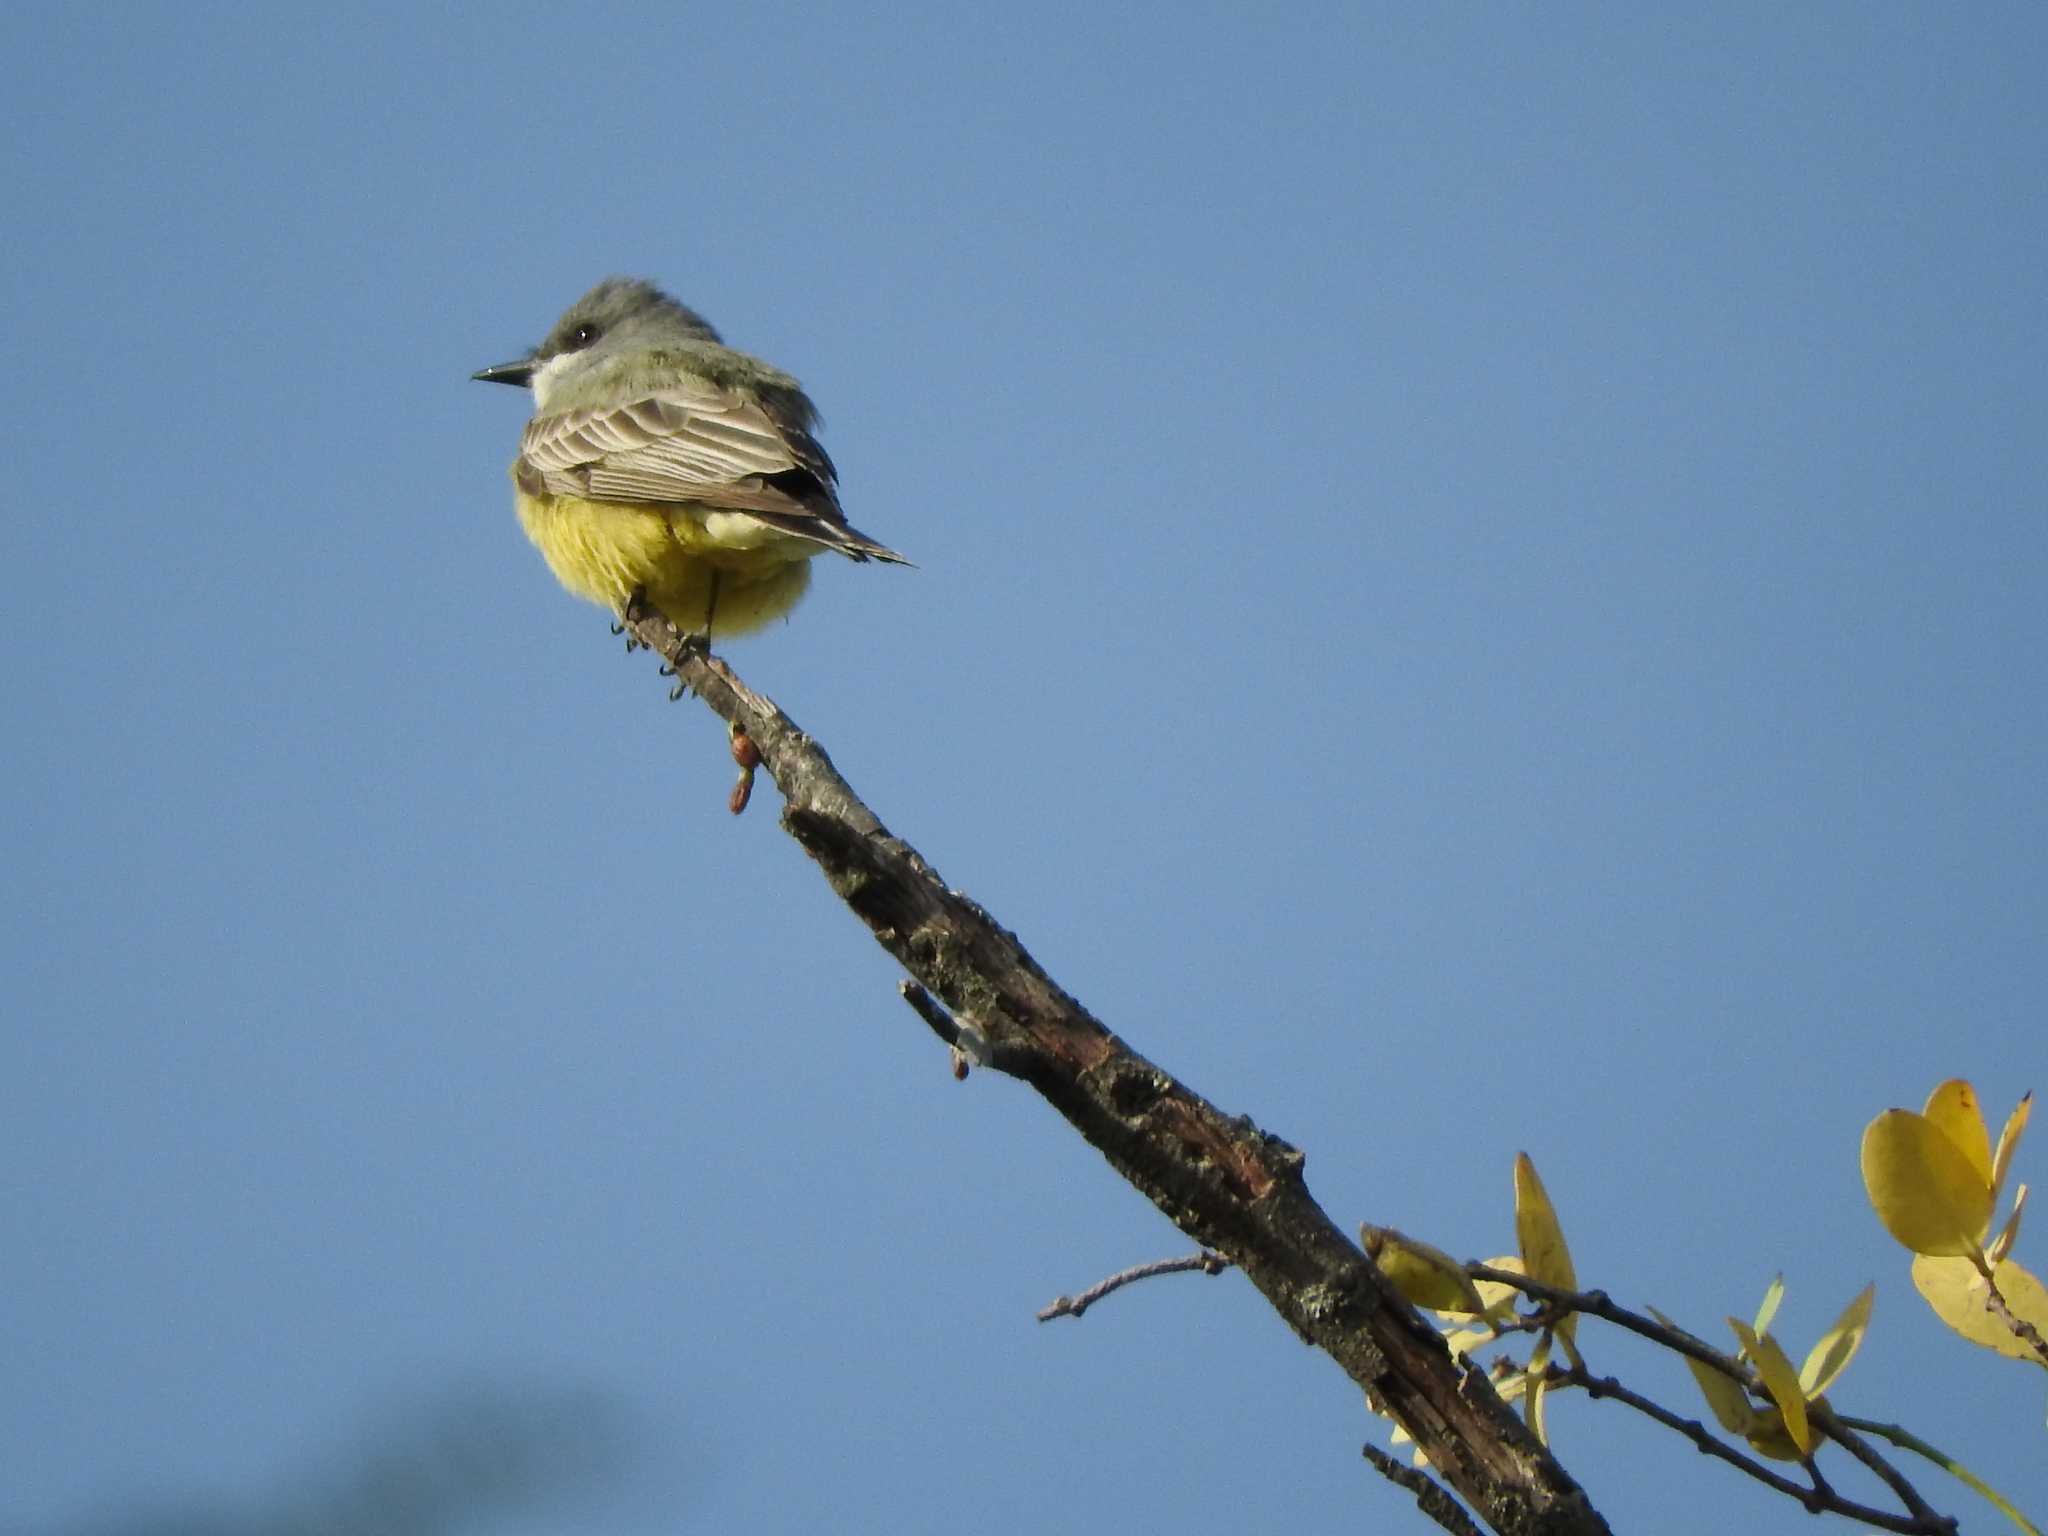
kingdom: Animalia
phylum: Chordata
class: Aves
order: Passeriformes
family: Tyrannidae
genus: Tyrannus
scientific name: Tyrannus vociferans
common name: Cassin's kingbird
